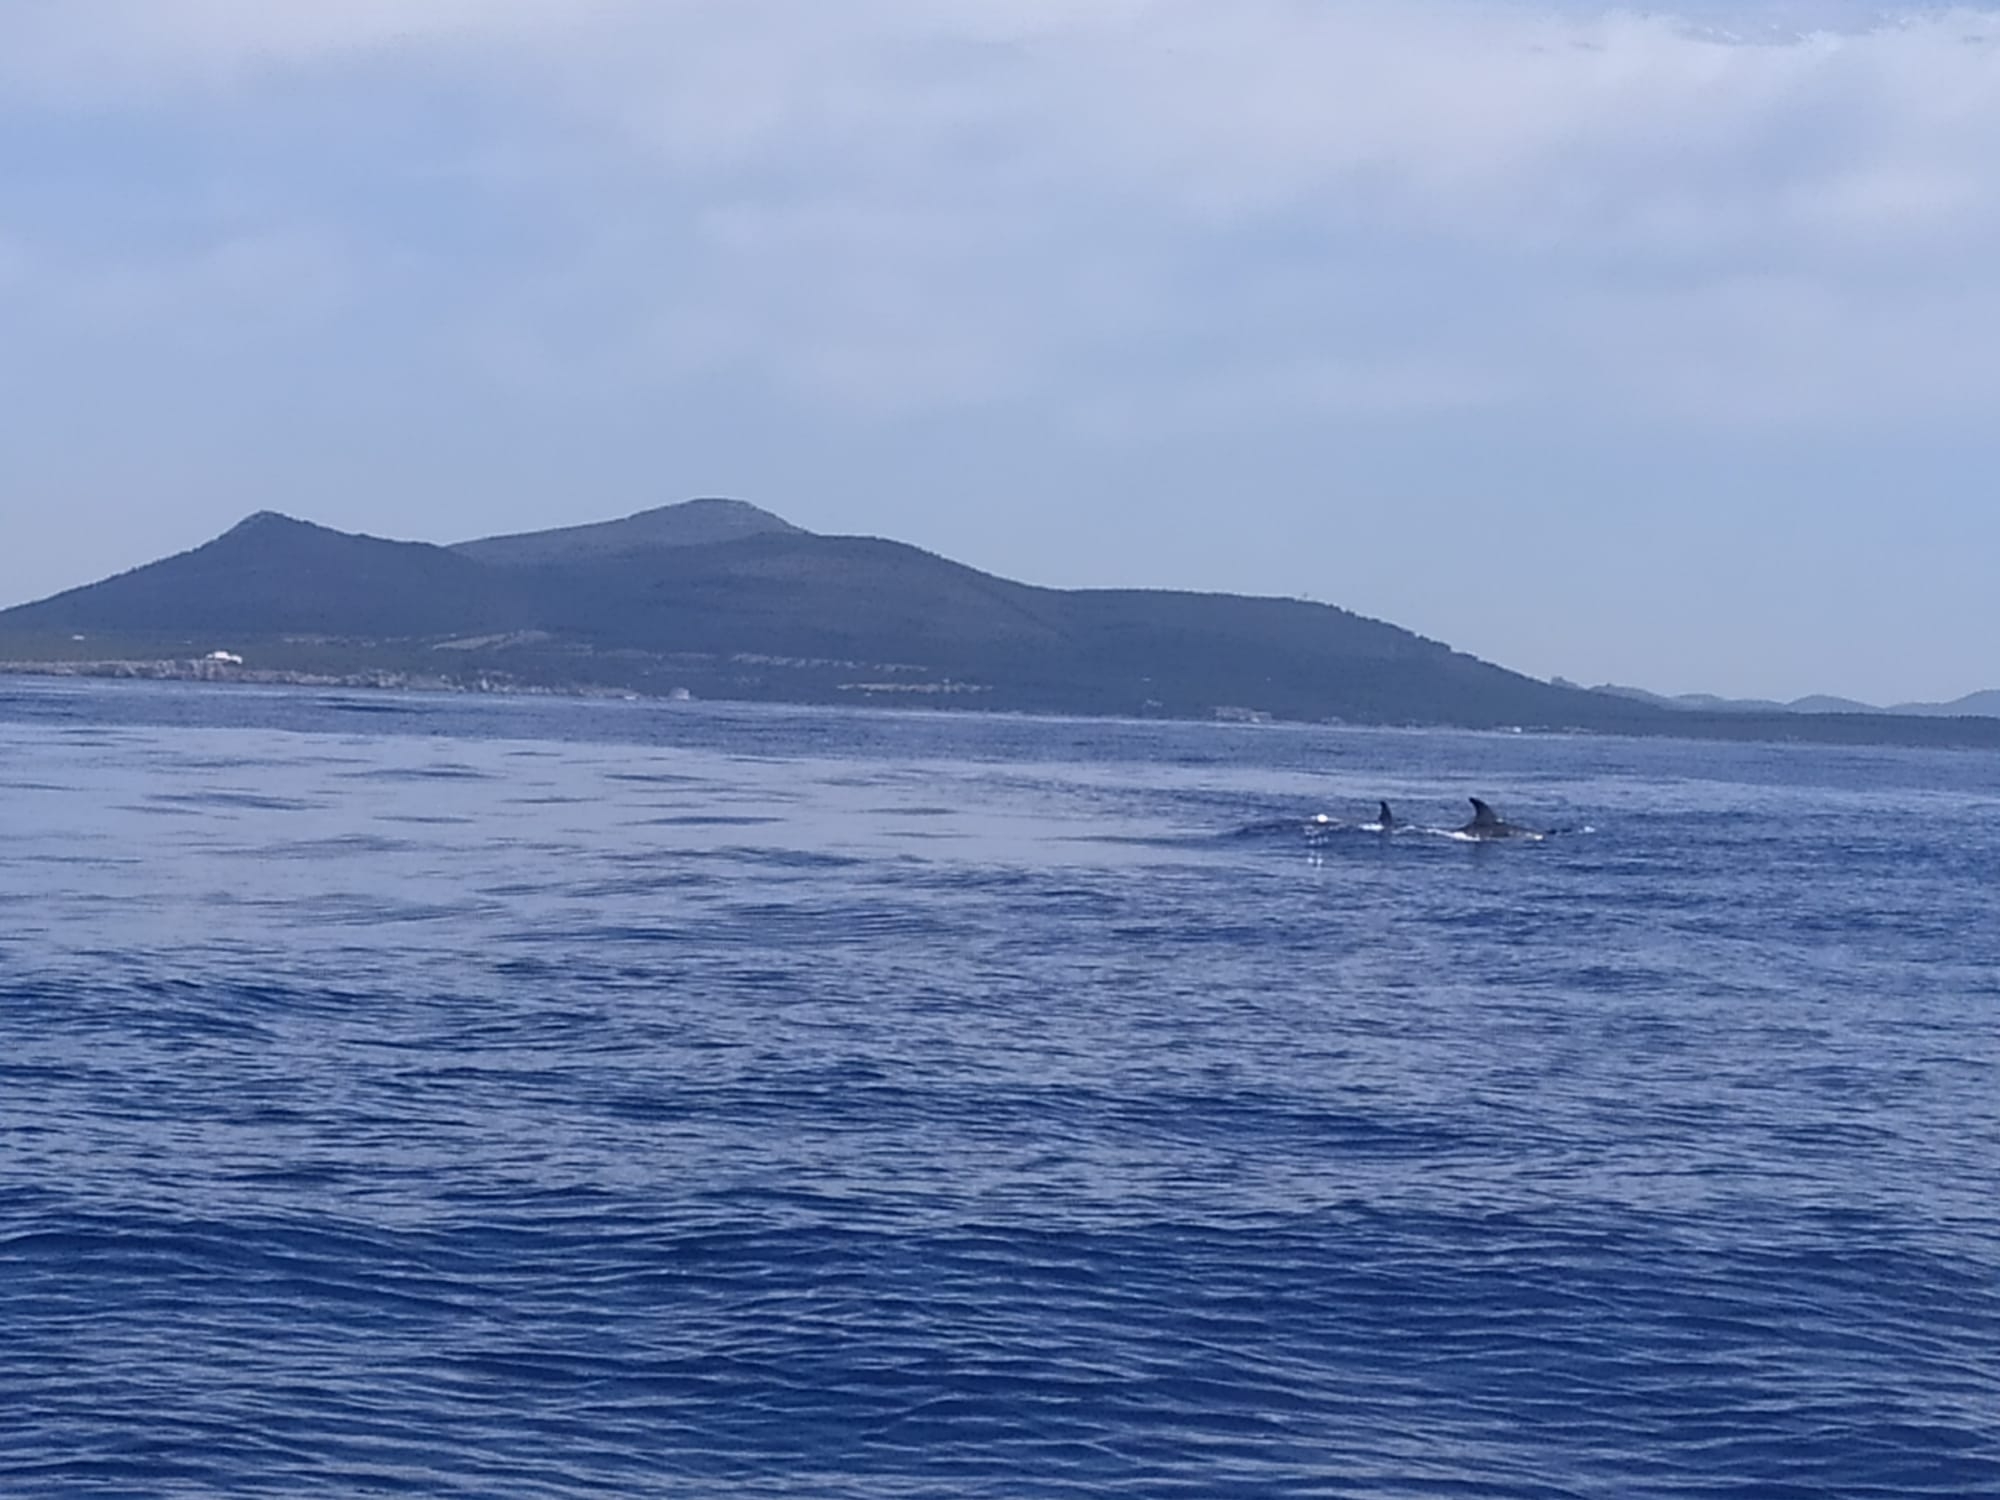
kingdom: Animalia
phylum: Chordata
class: Mammalia
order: Cetacea
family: Delphinidae
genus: Tursiops
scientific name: Tursiops truncatus
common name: Bottlenose dolphin
